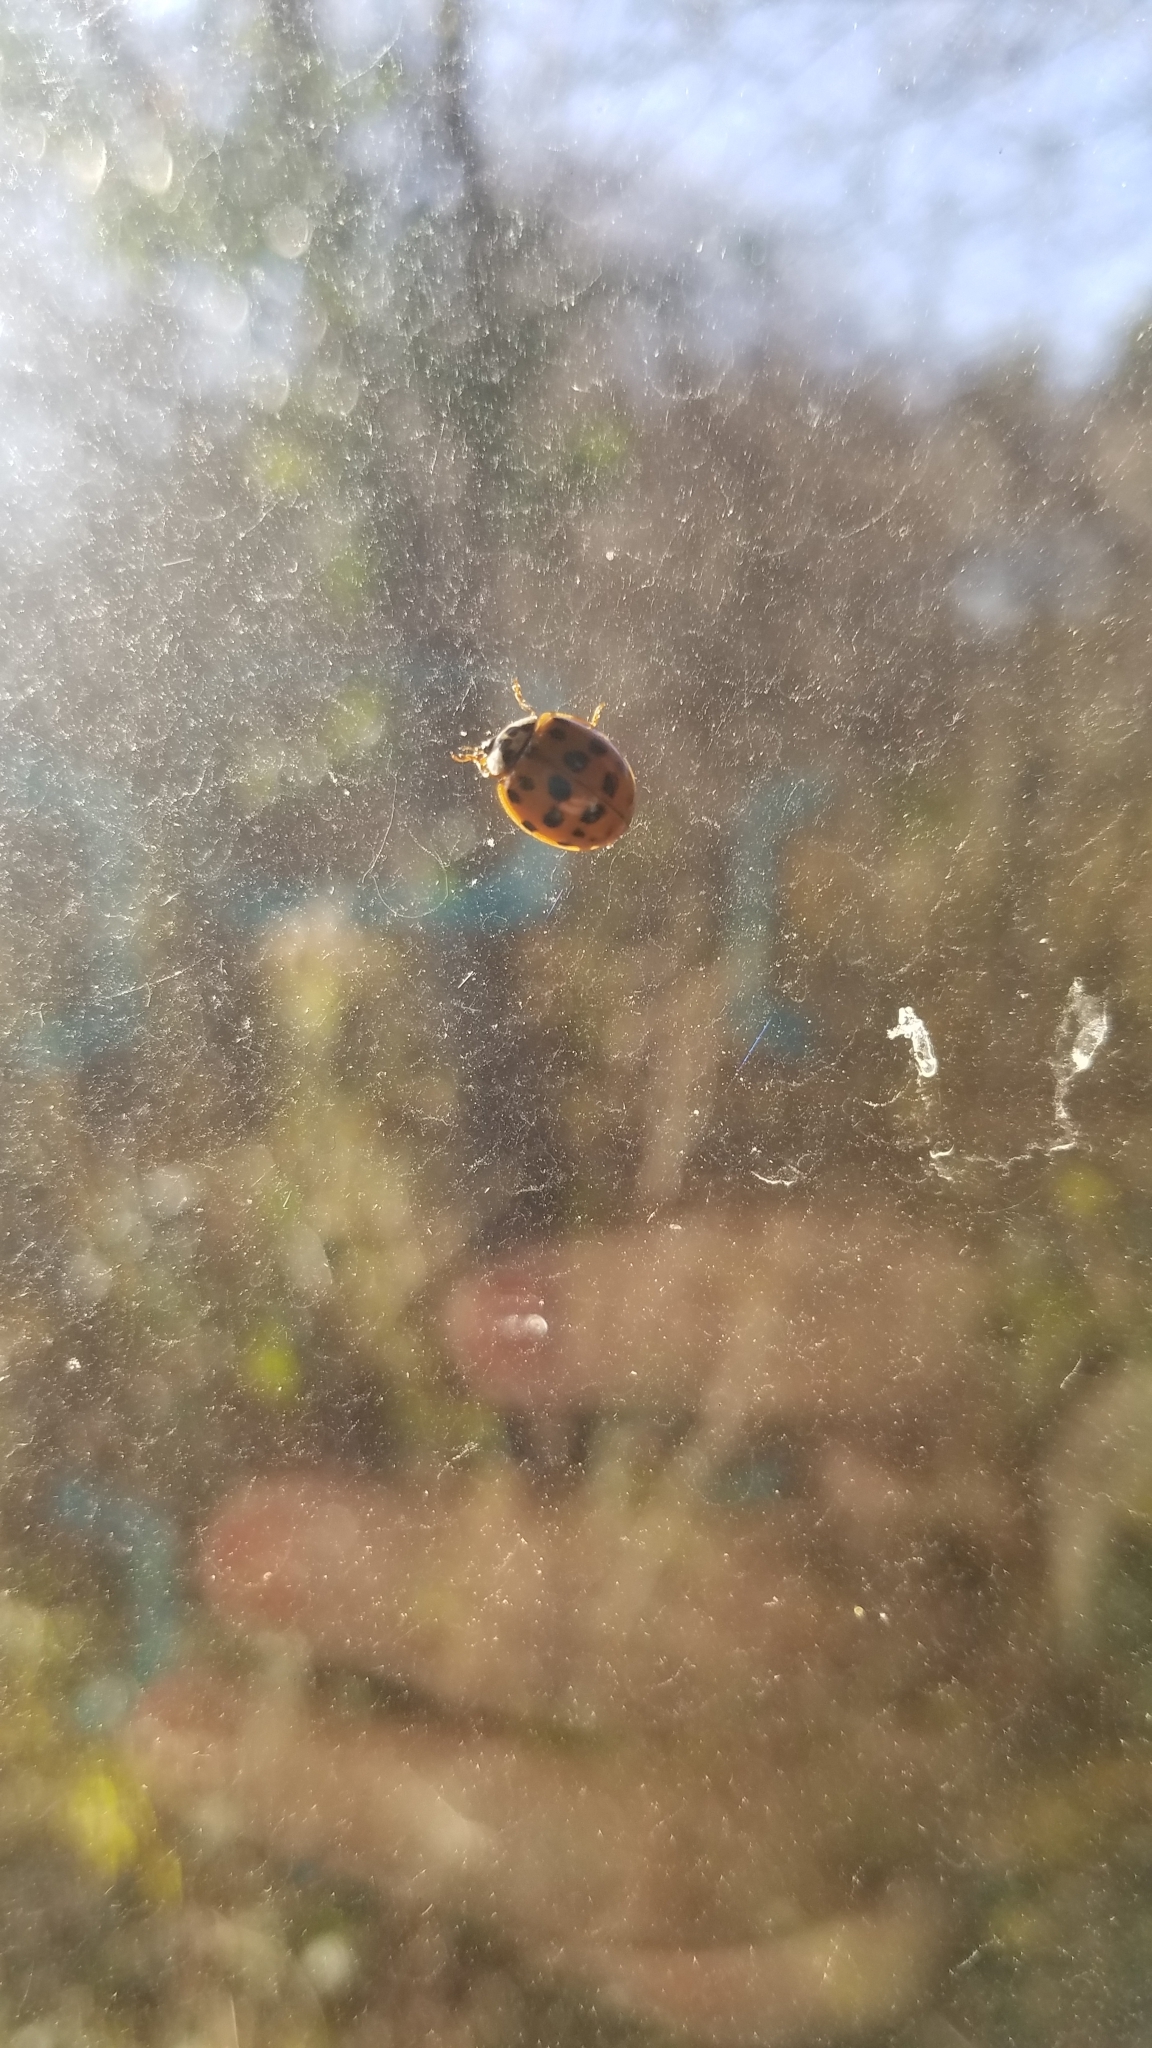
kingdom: Animalia
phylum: Arthropoda
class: Insecta
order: Coleoptera
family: Coccinellidae
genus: Harmonia
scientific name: Harmonia axyridis
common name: Harlequin ladybird
